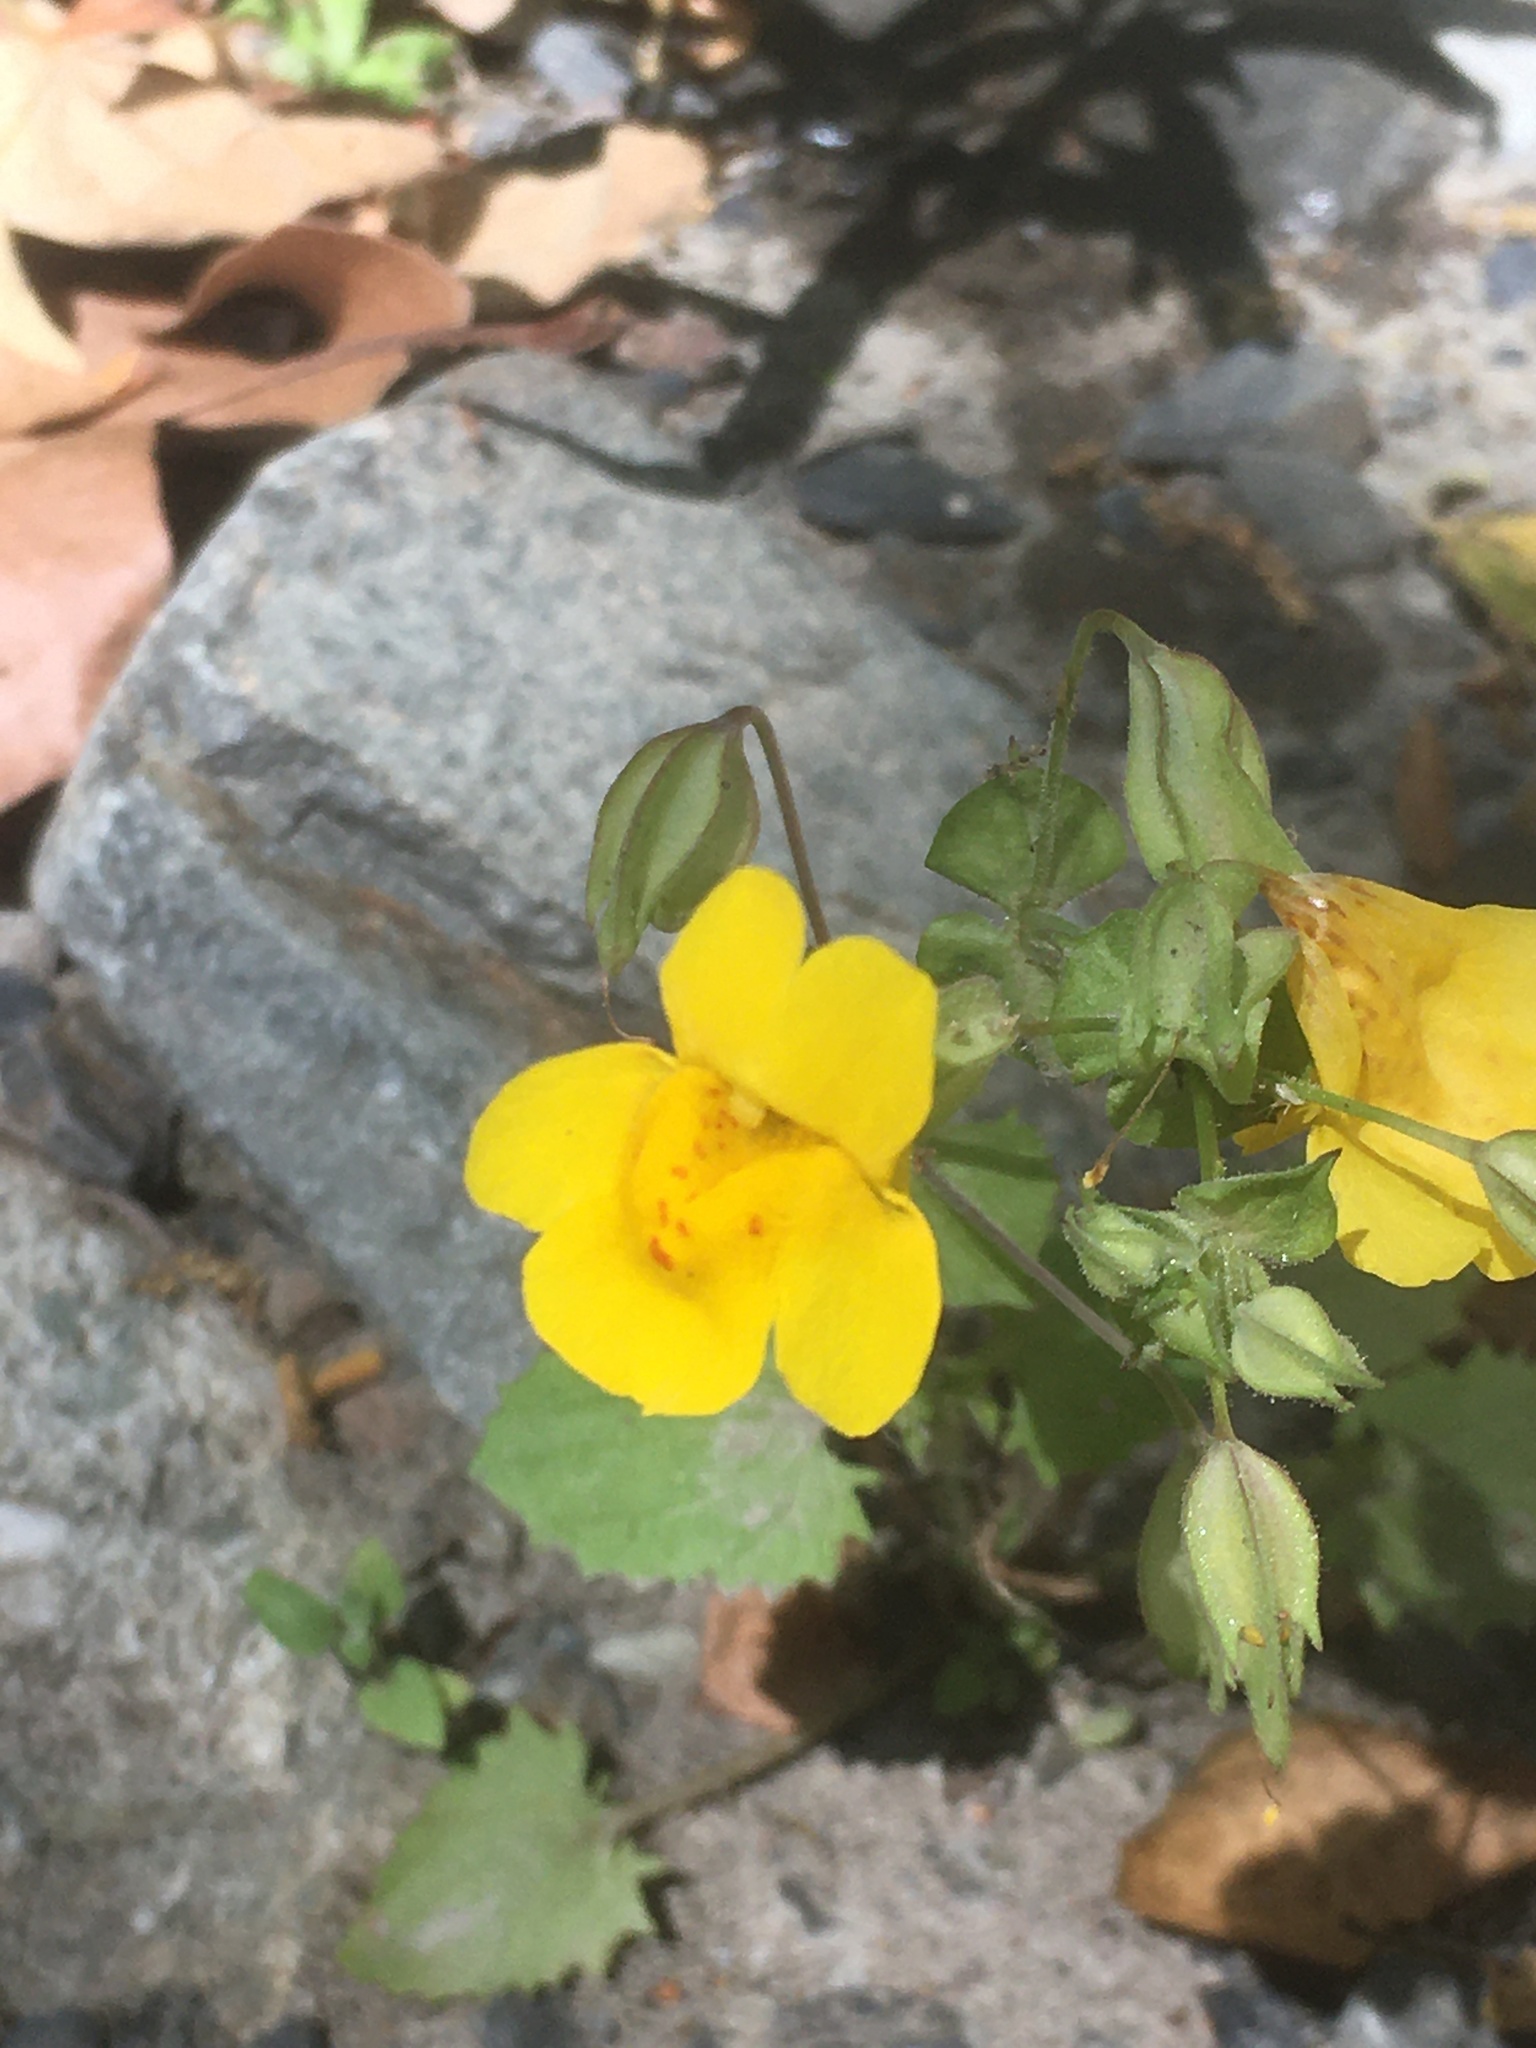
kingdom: Plantae
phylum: Tracheophyta
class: Magnoliopsida
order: Lamiales
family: Phrymaceae
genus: Erythranthe
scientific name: Erythranthe guttata
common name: Monkeyflower
